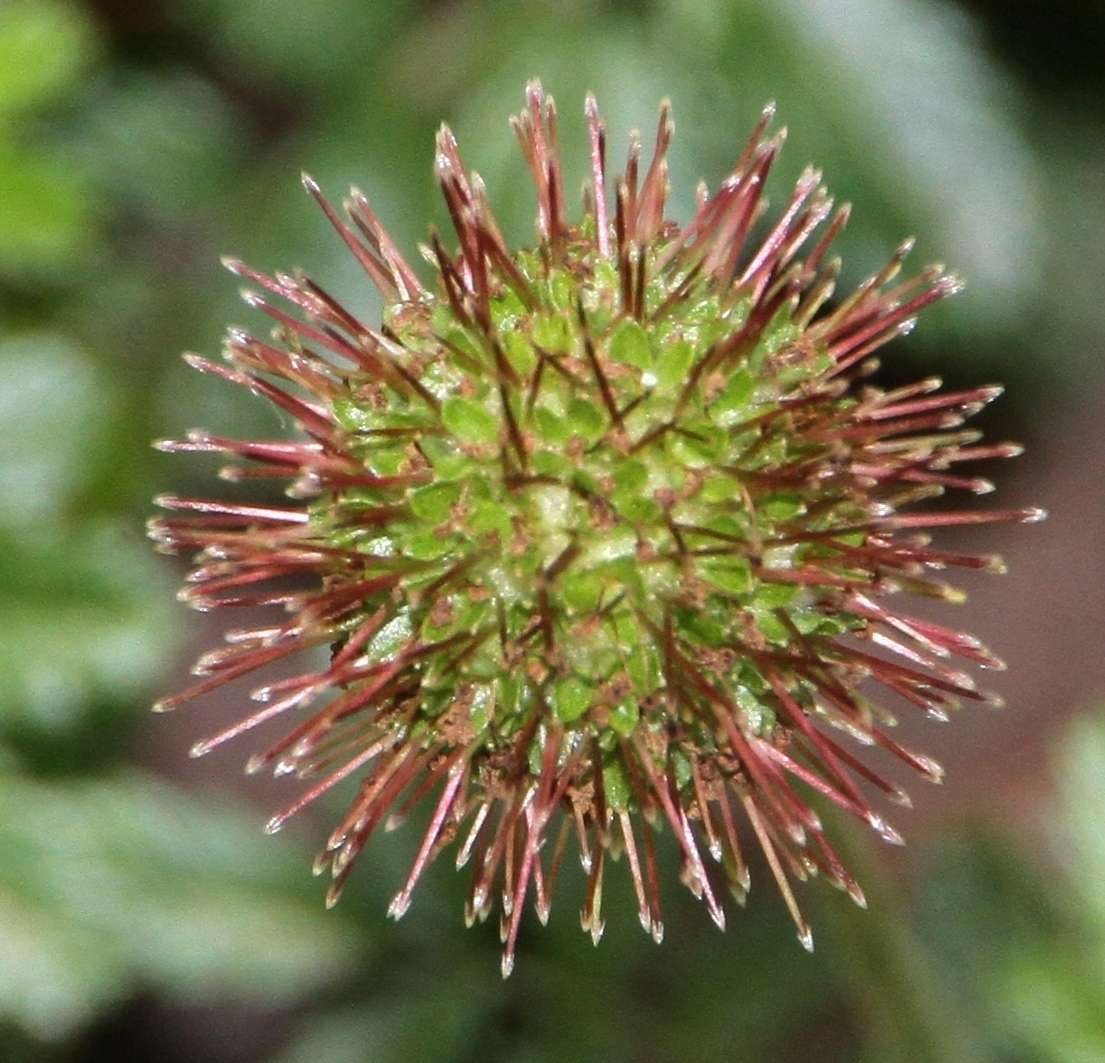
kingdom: Plantae
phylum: Tracheophyta
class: Magnoliopsida
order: Rosales
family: Rosaceae
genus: Acaena
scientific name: Acaena novae-zelandiae
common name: Pirri-pirri-bur
